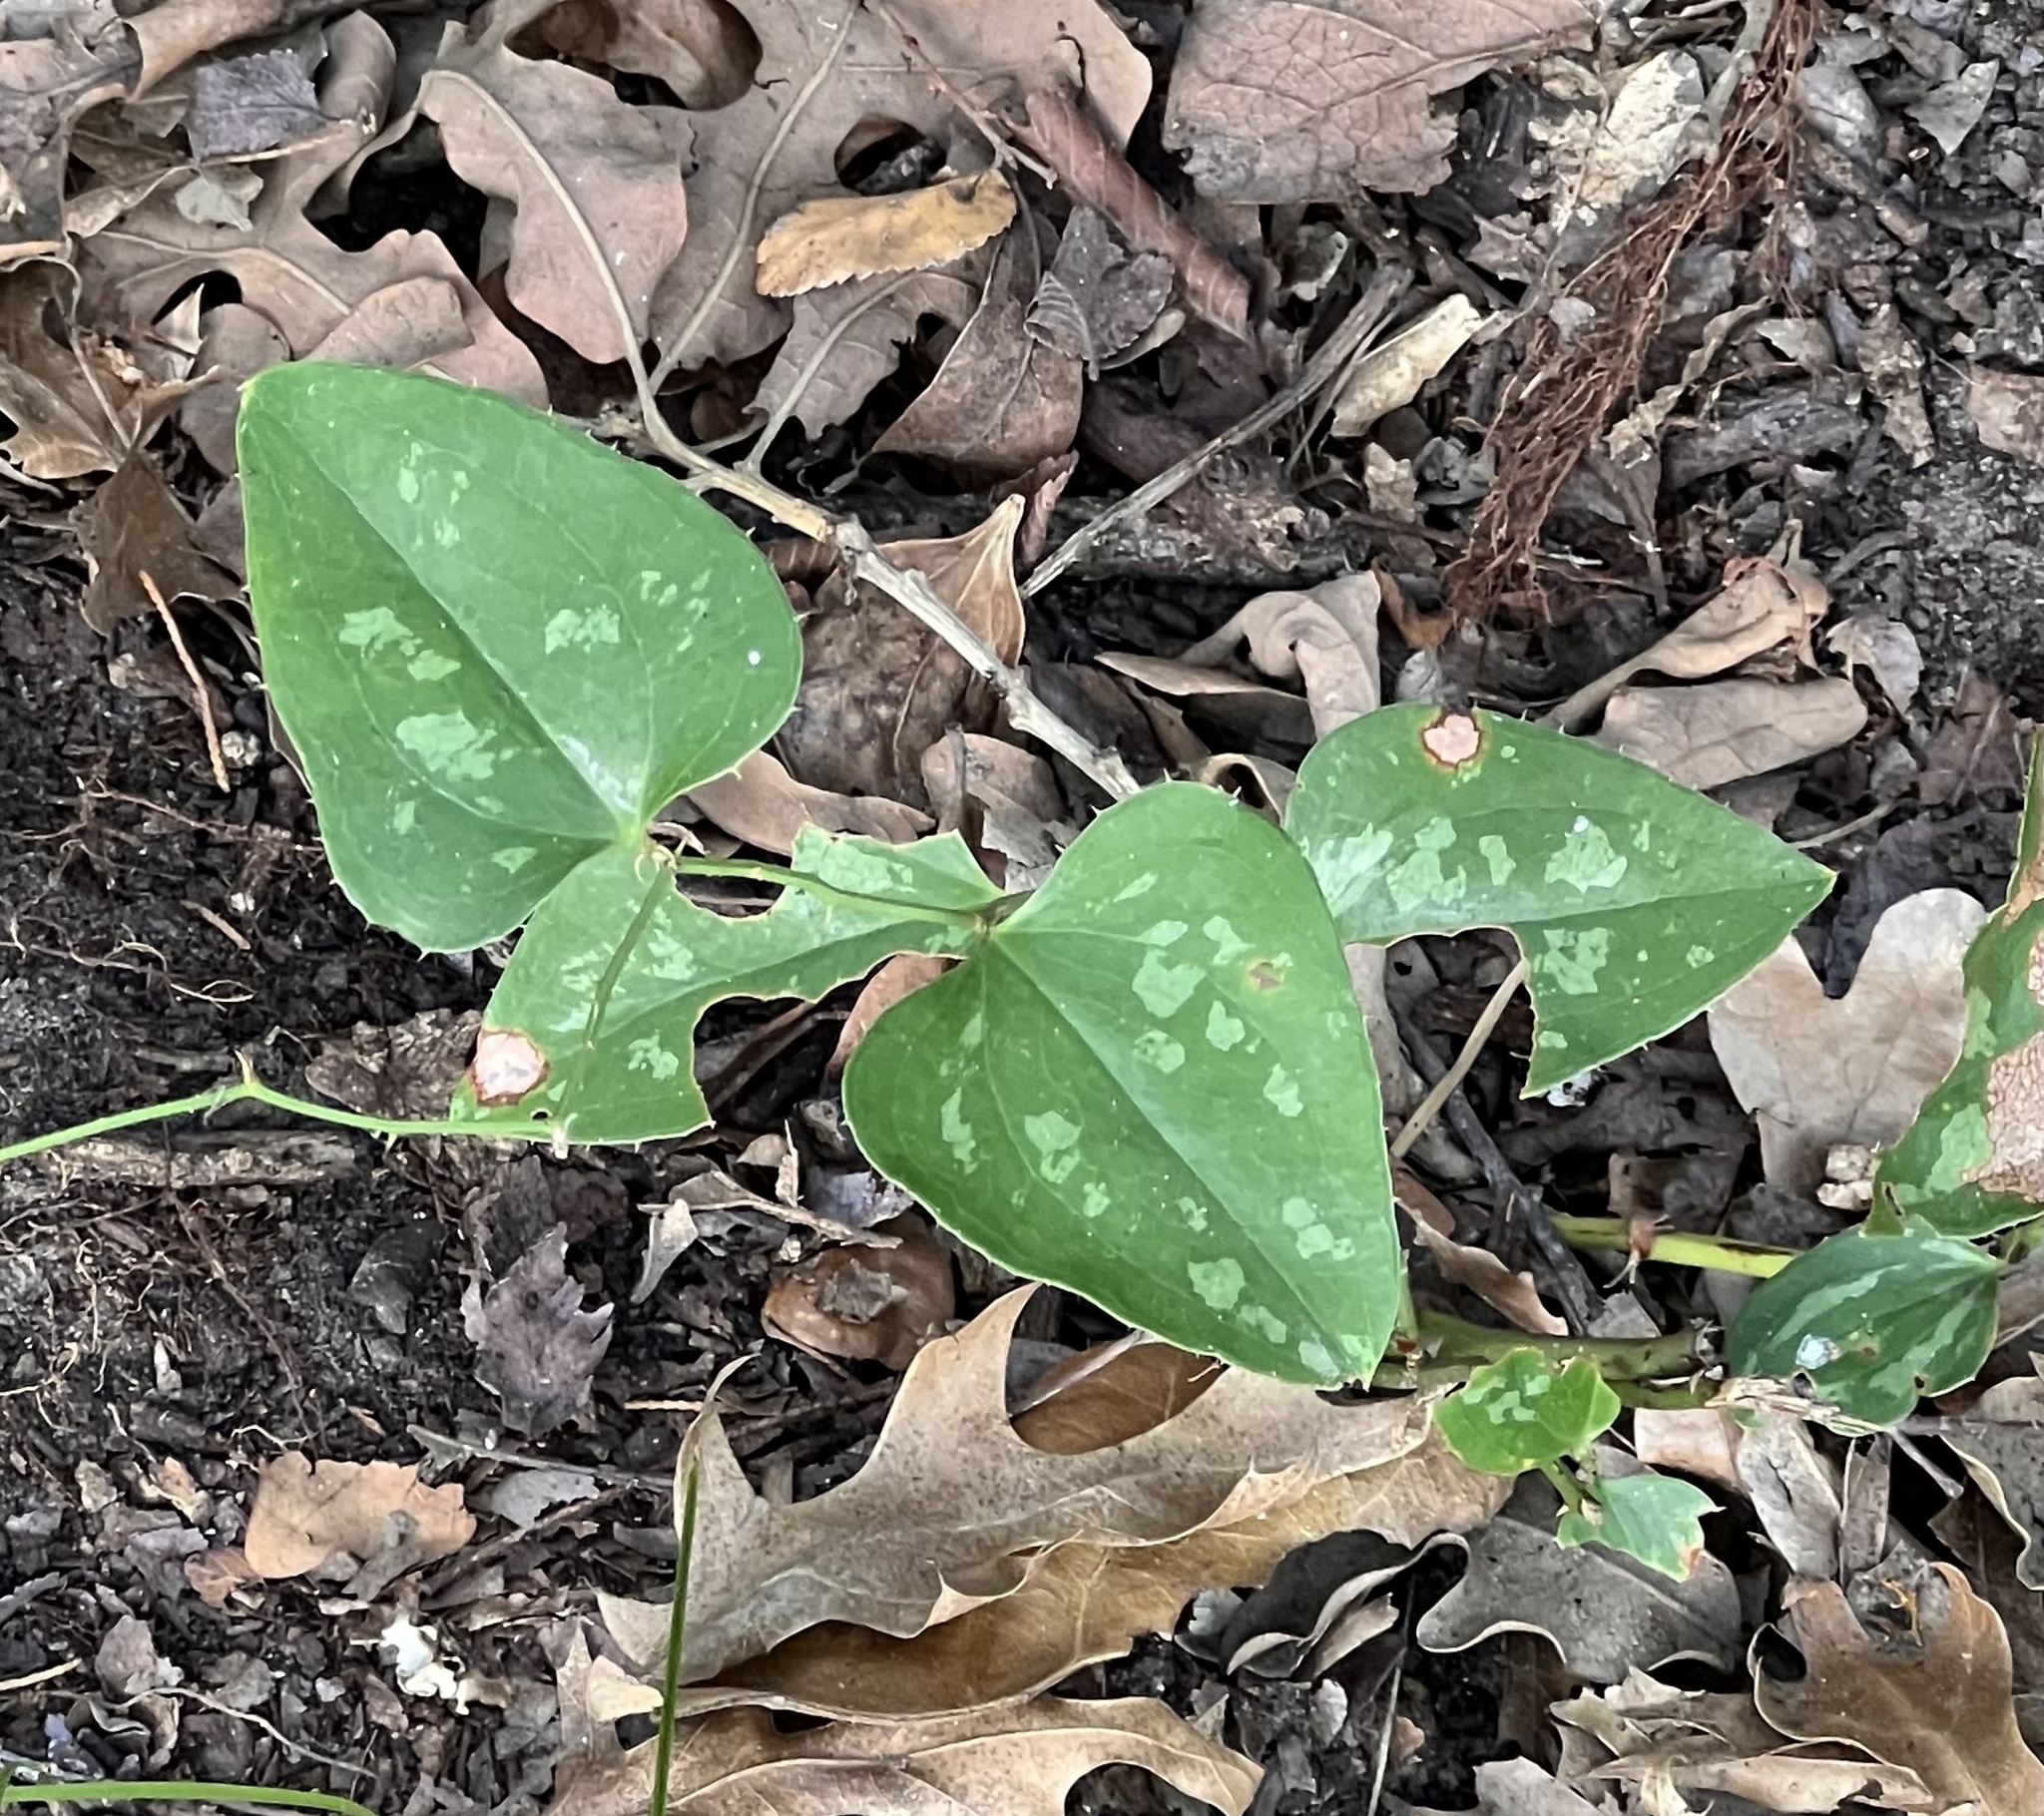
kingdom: Plantae
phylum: Tracheophyta
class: Liliopsida
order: Liliales
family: Smilacaceae
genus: Smilax
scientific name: Smilax bona-nox
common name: Catbrier
